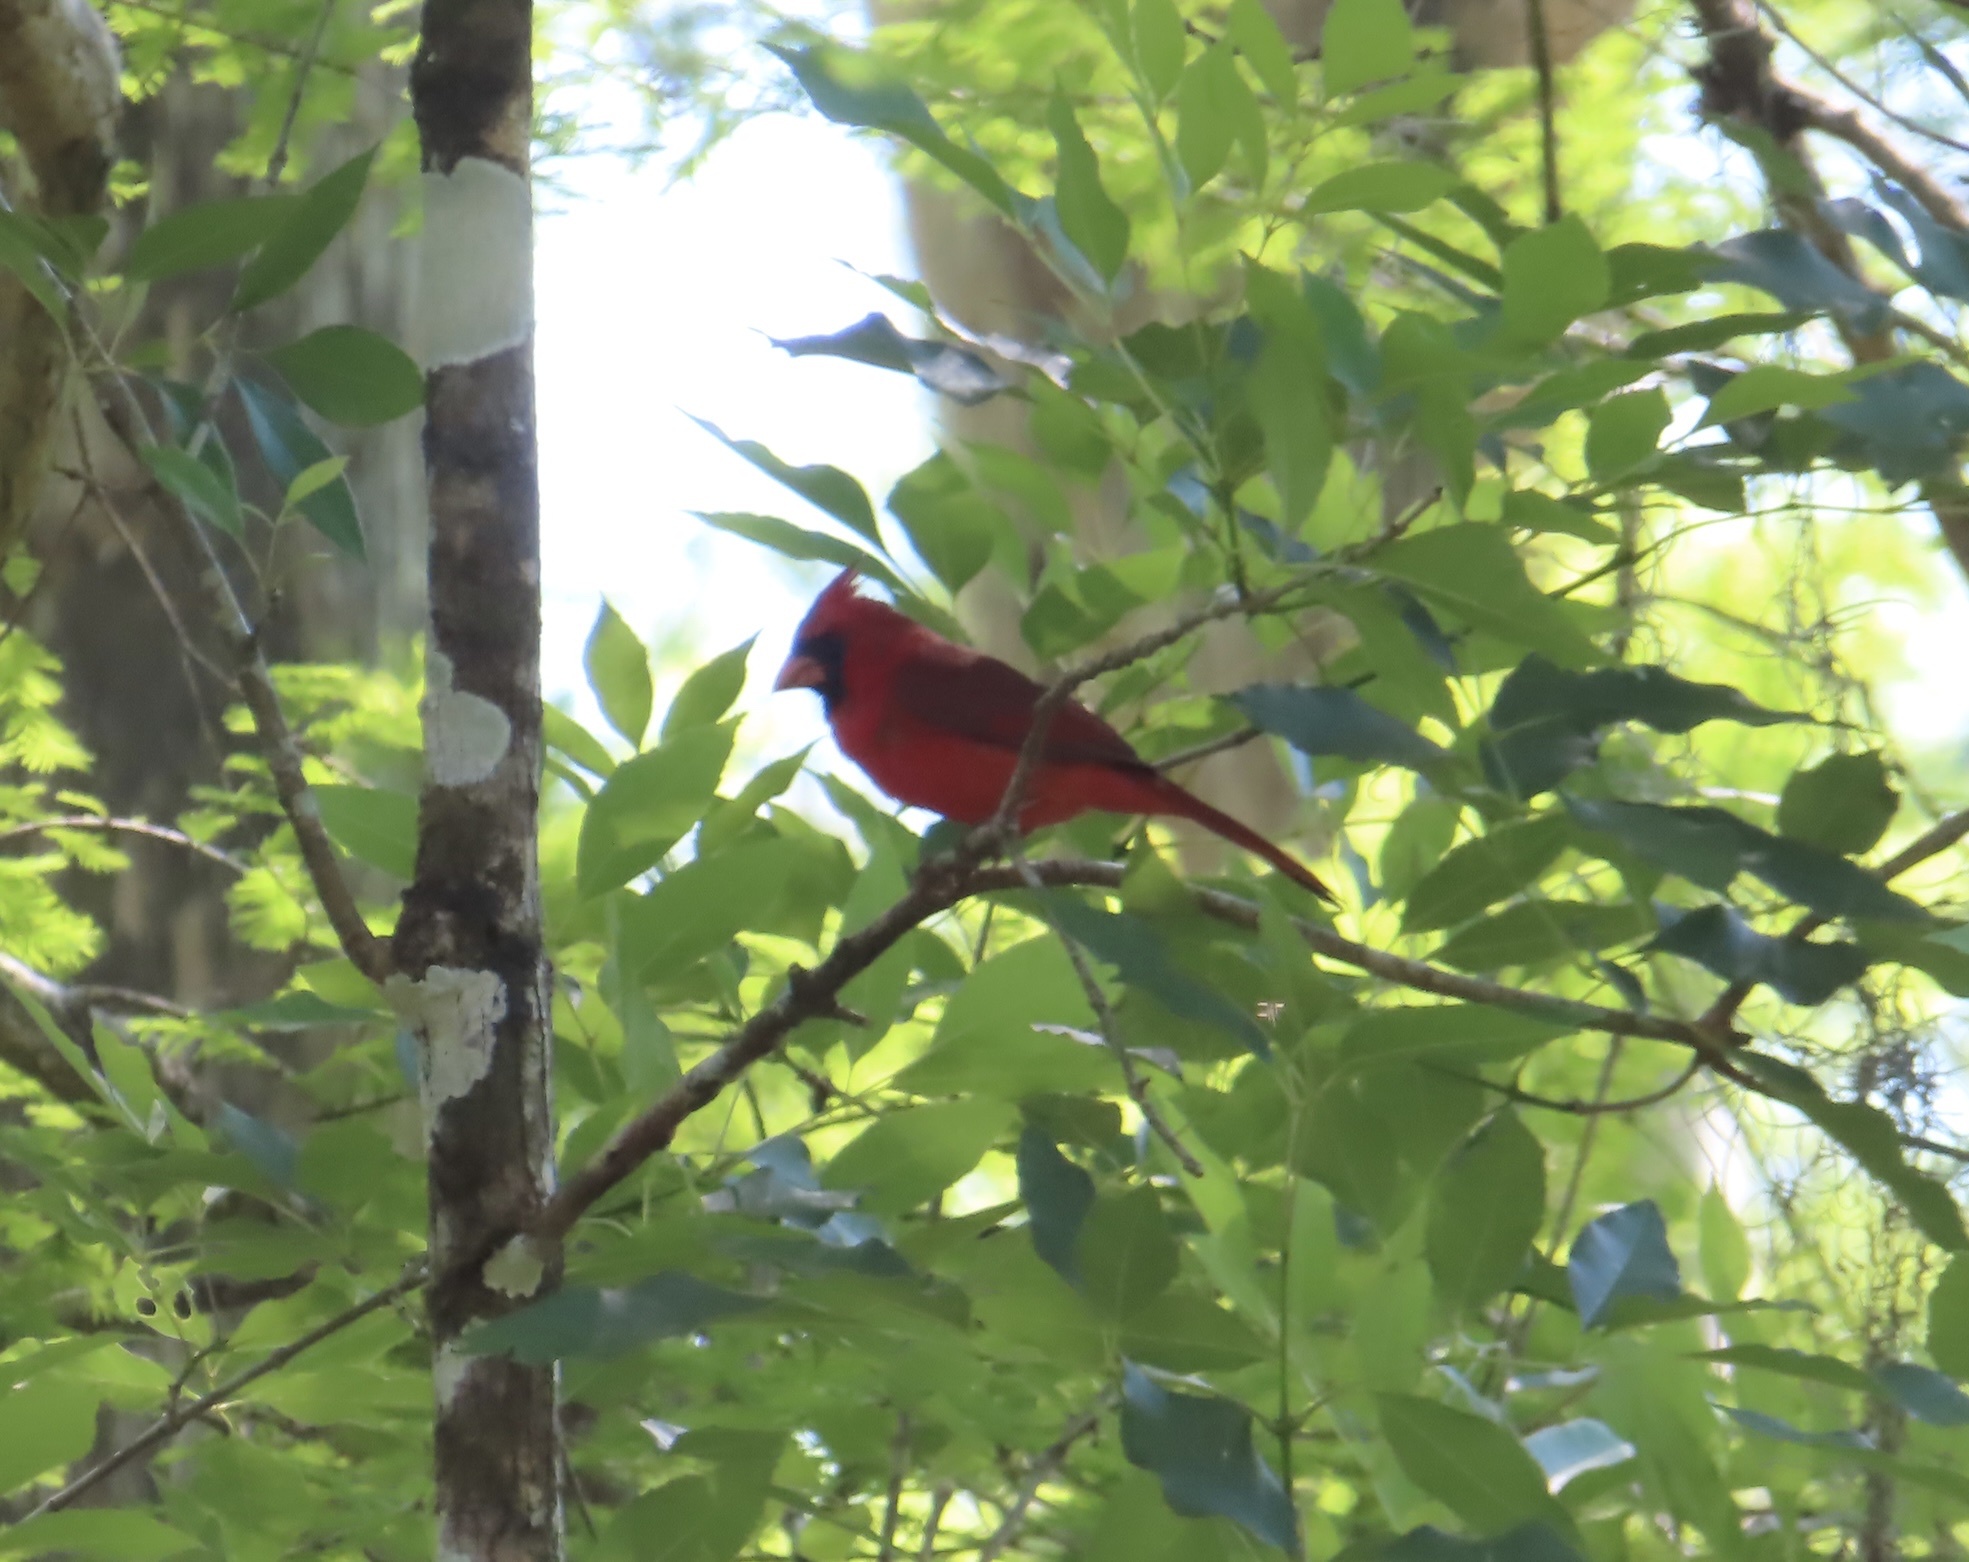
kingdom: Animalia
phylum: Chordata
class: Aves
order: Passeriformes
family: Cardinalidae
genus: Cardinalis
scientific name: Cardinalis cardinalis
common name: Northern cardinal
